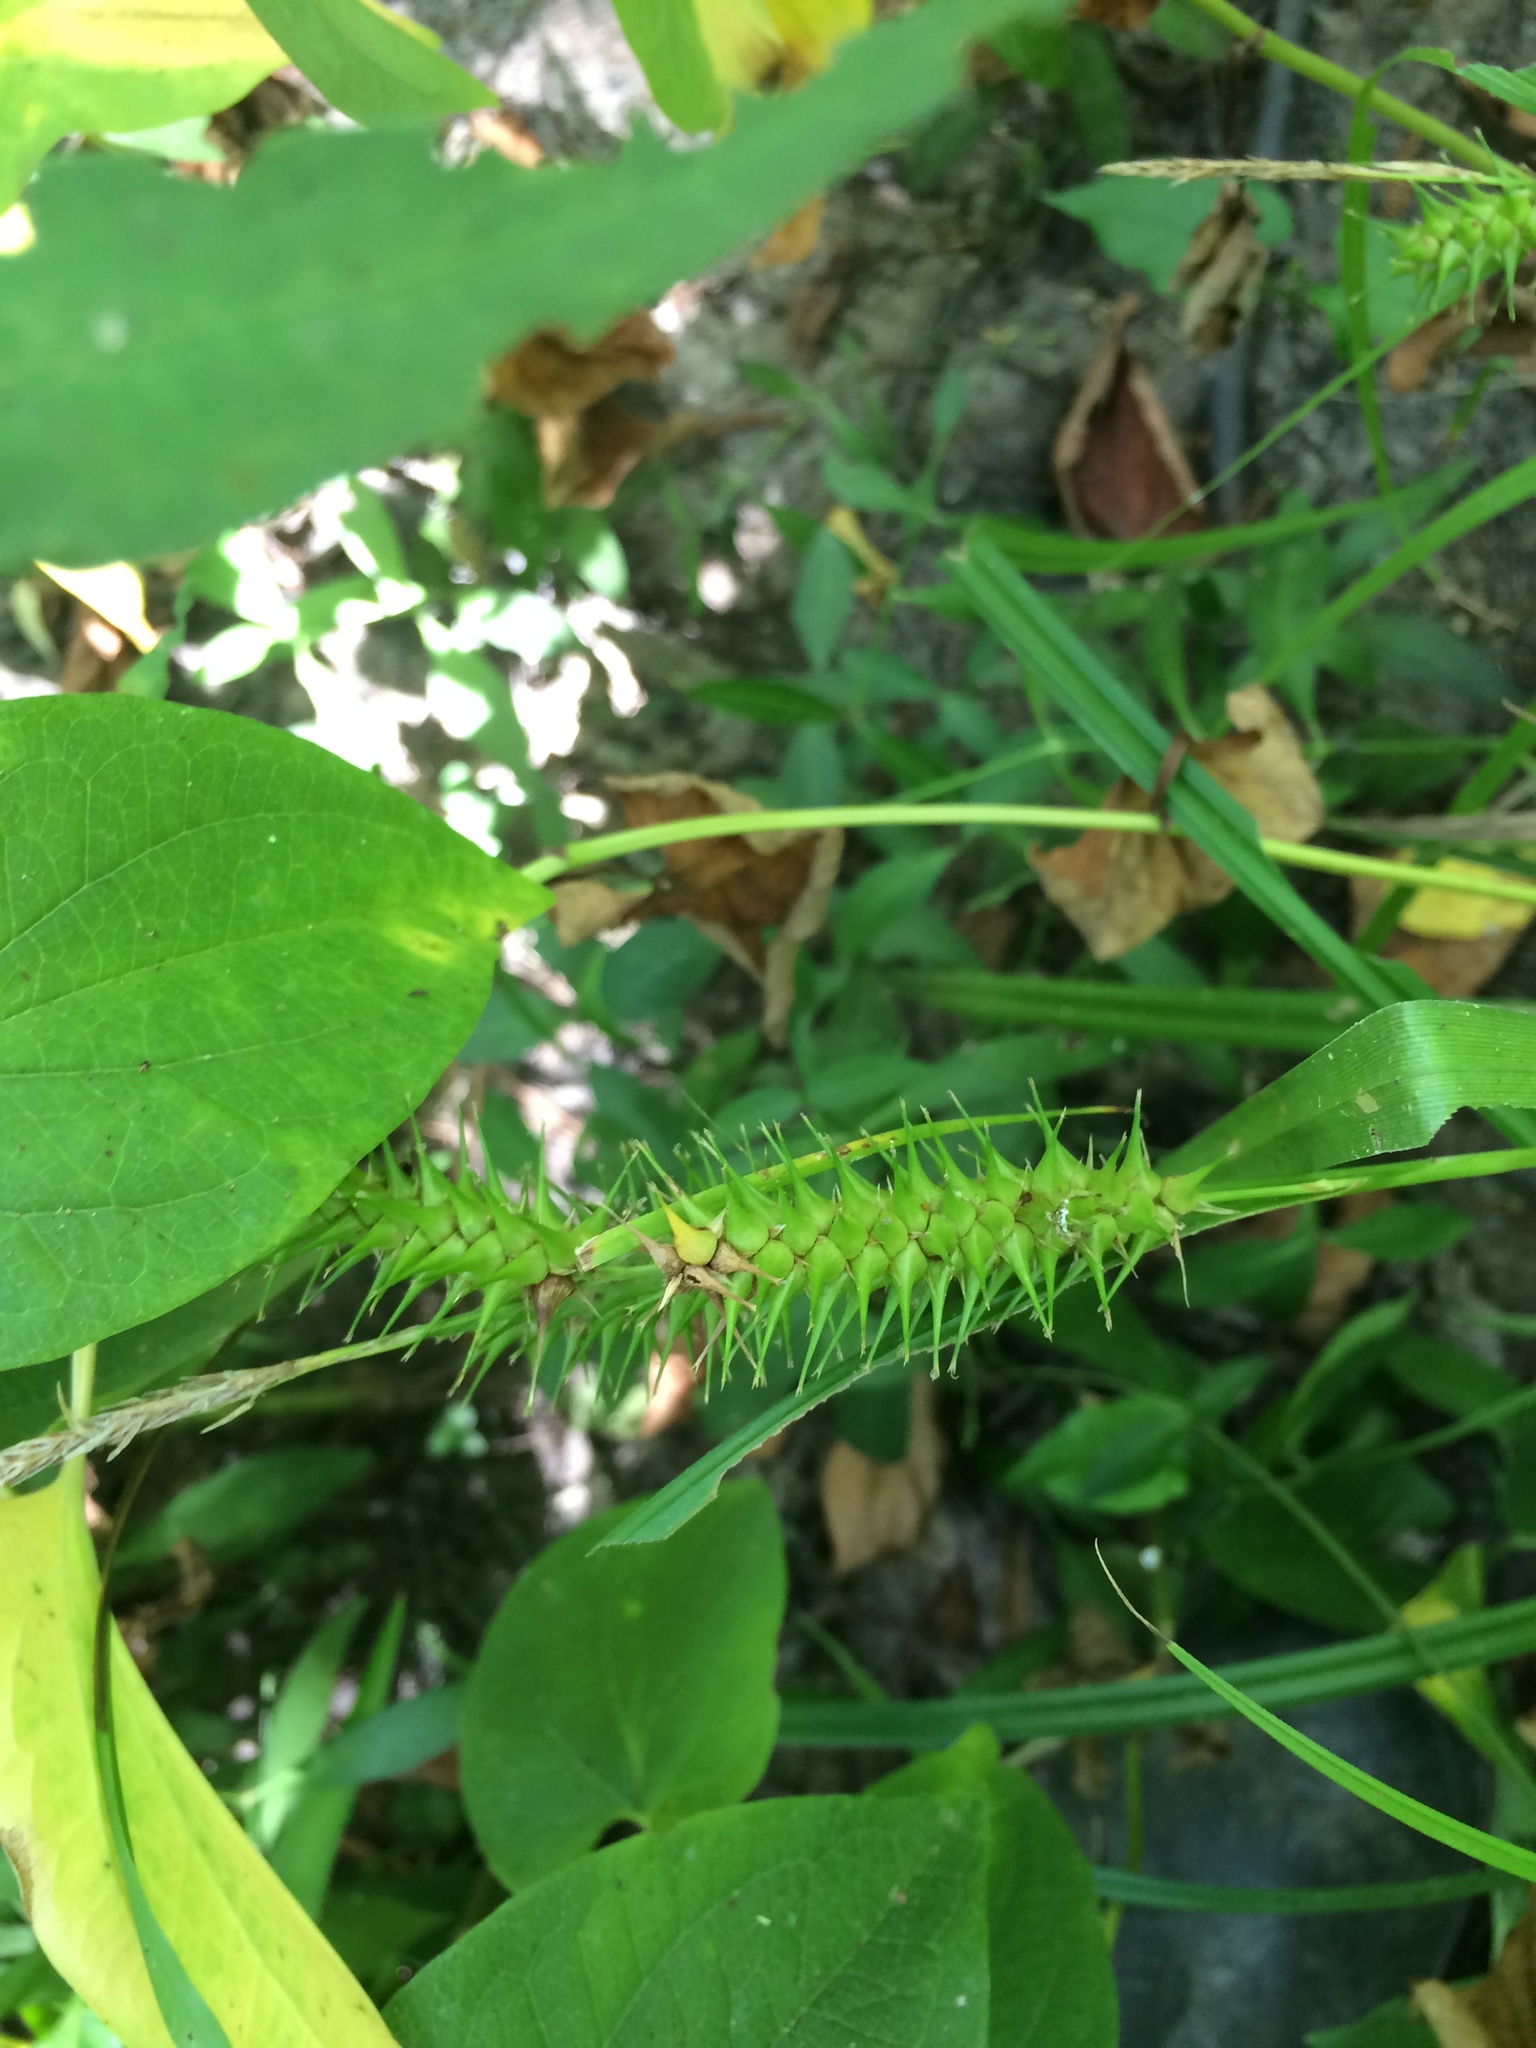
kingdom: Plantae
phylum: Tracheophyta
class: Liliopsida
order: Poales
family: Cyperaceae
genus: Carex
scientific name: Carex gigantea
